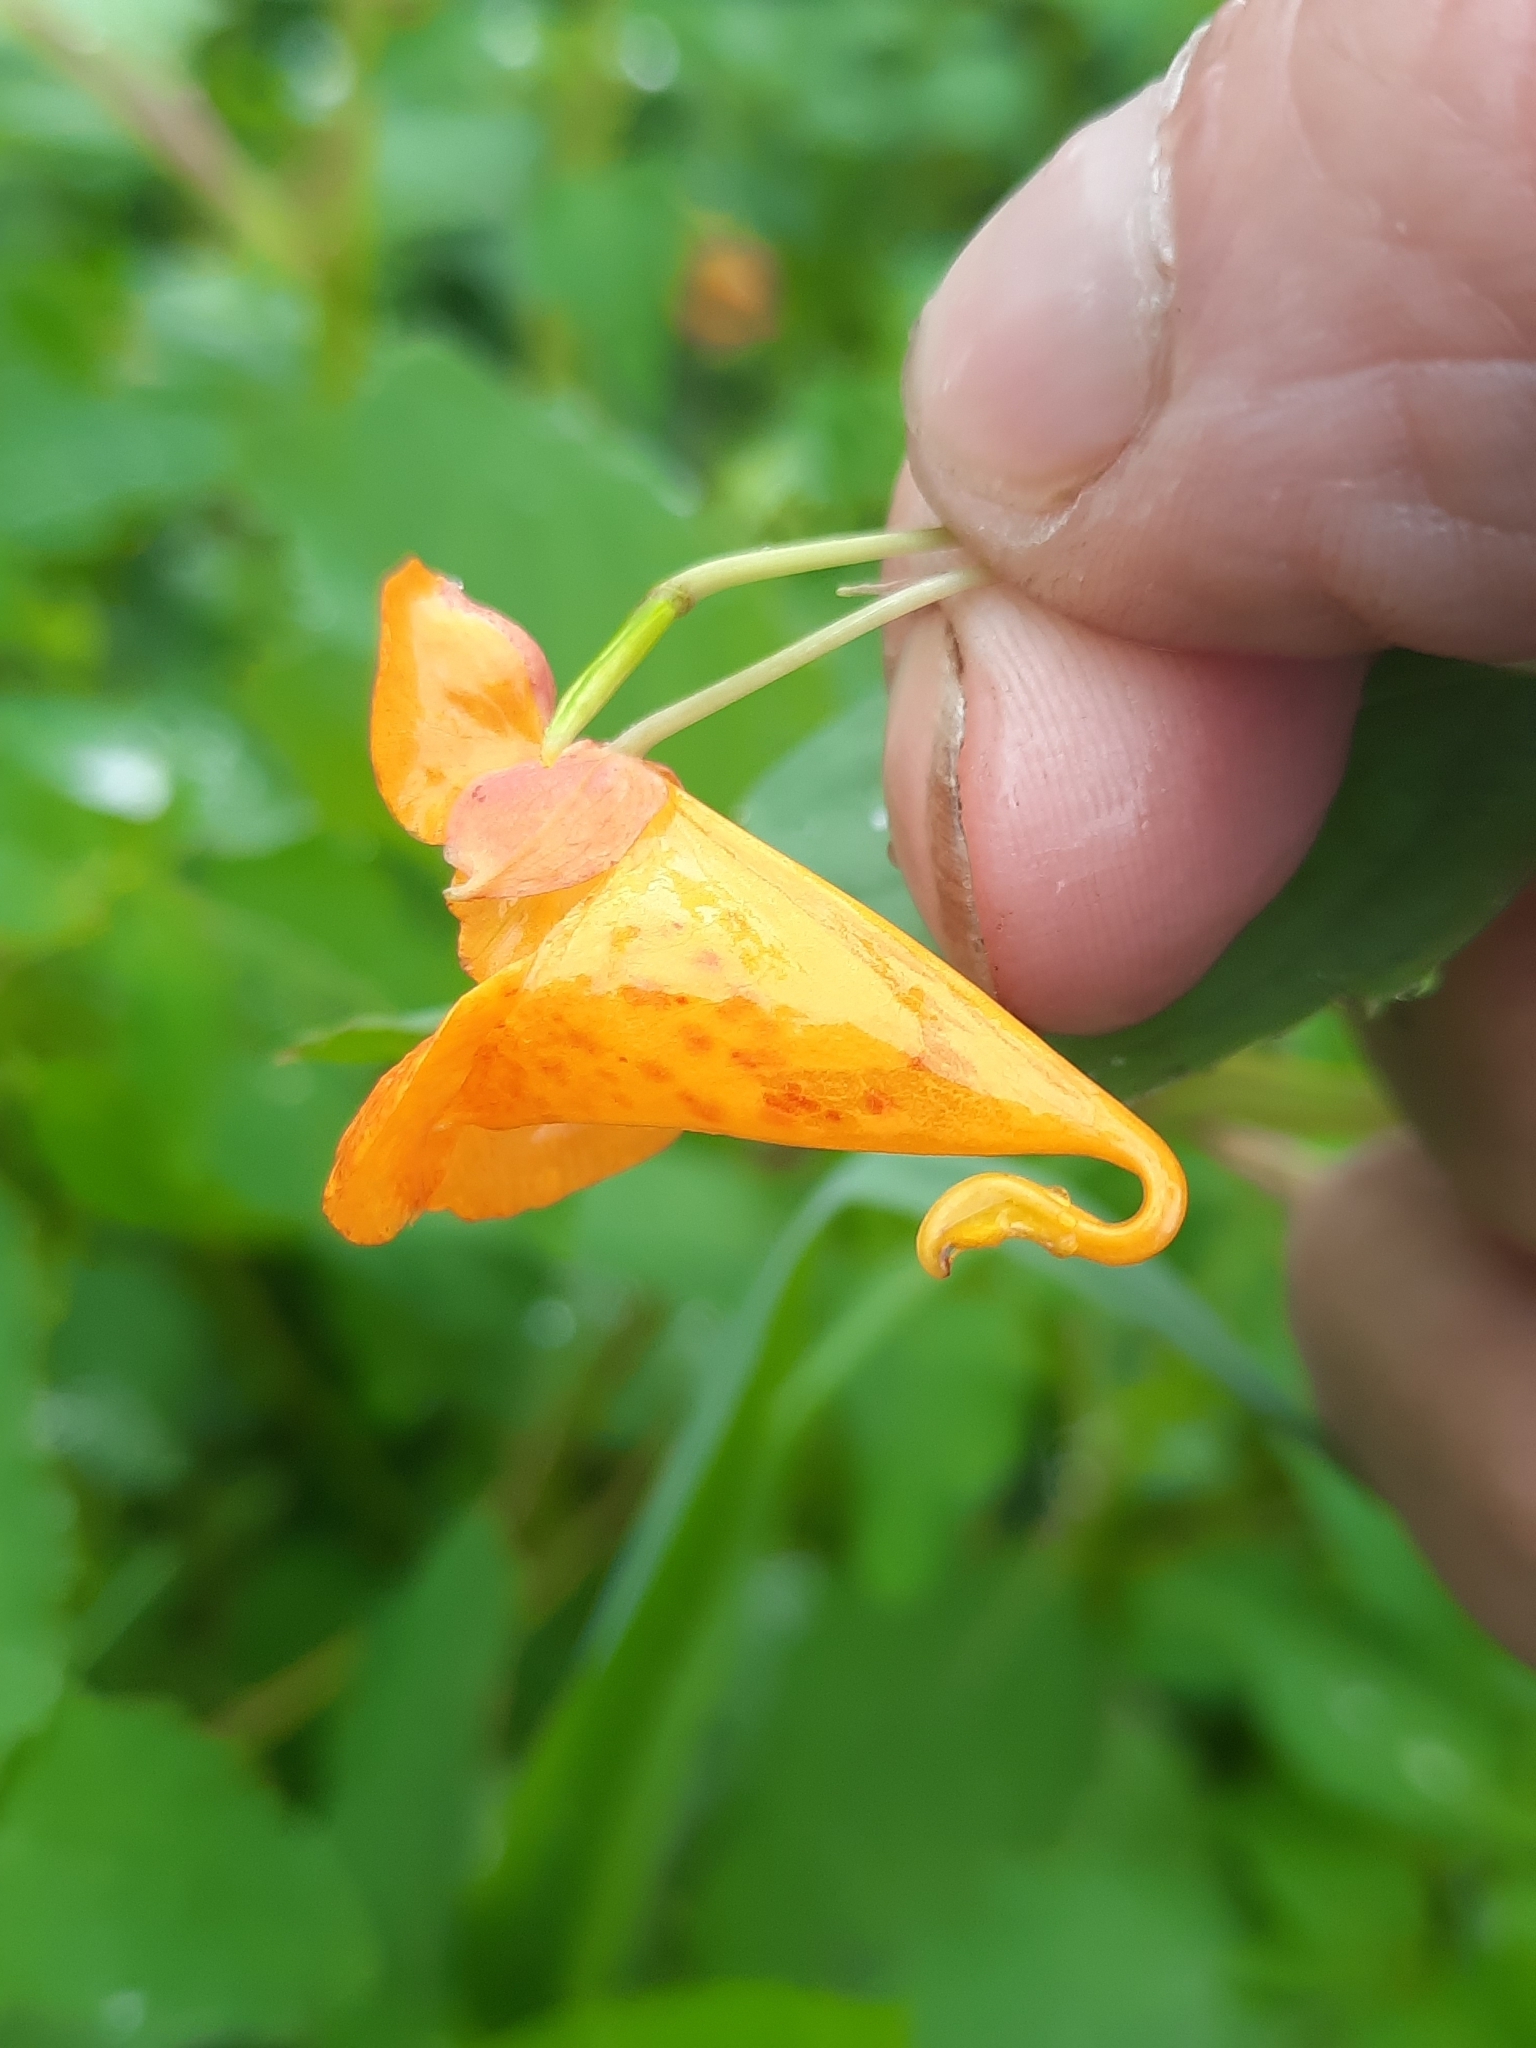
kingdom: Plantae
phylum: Tracheophyta
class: Magnoliopsida
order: Ericales
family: Balsaminaceae
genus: Impatiens
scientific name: Impatiens capensis
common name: Orange balsam
